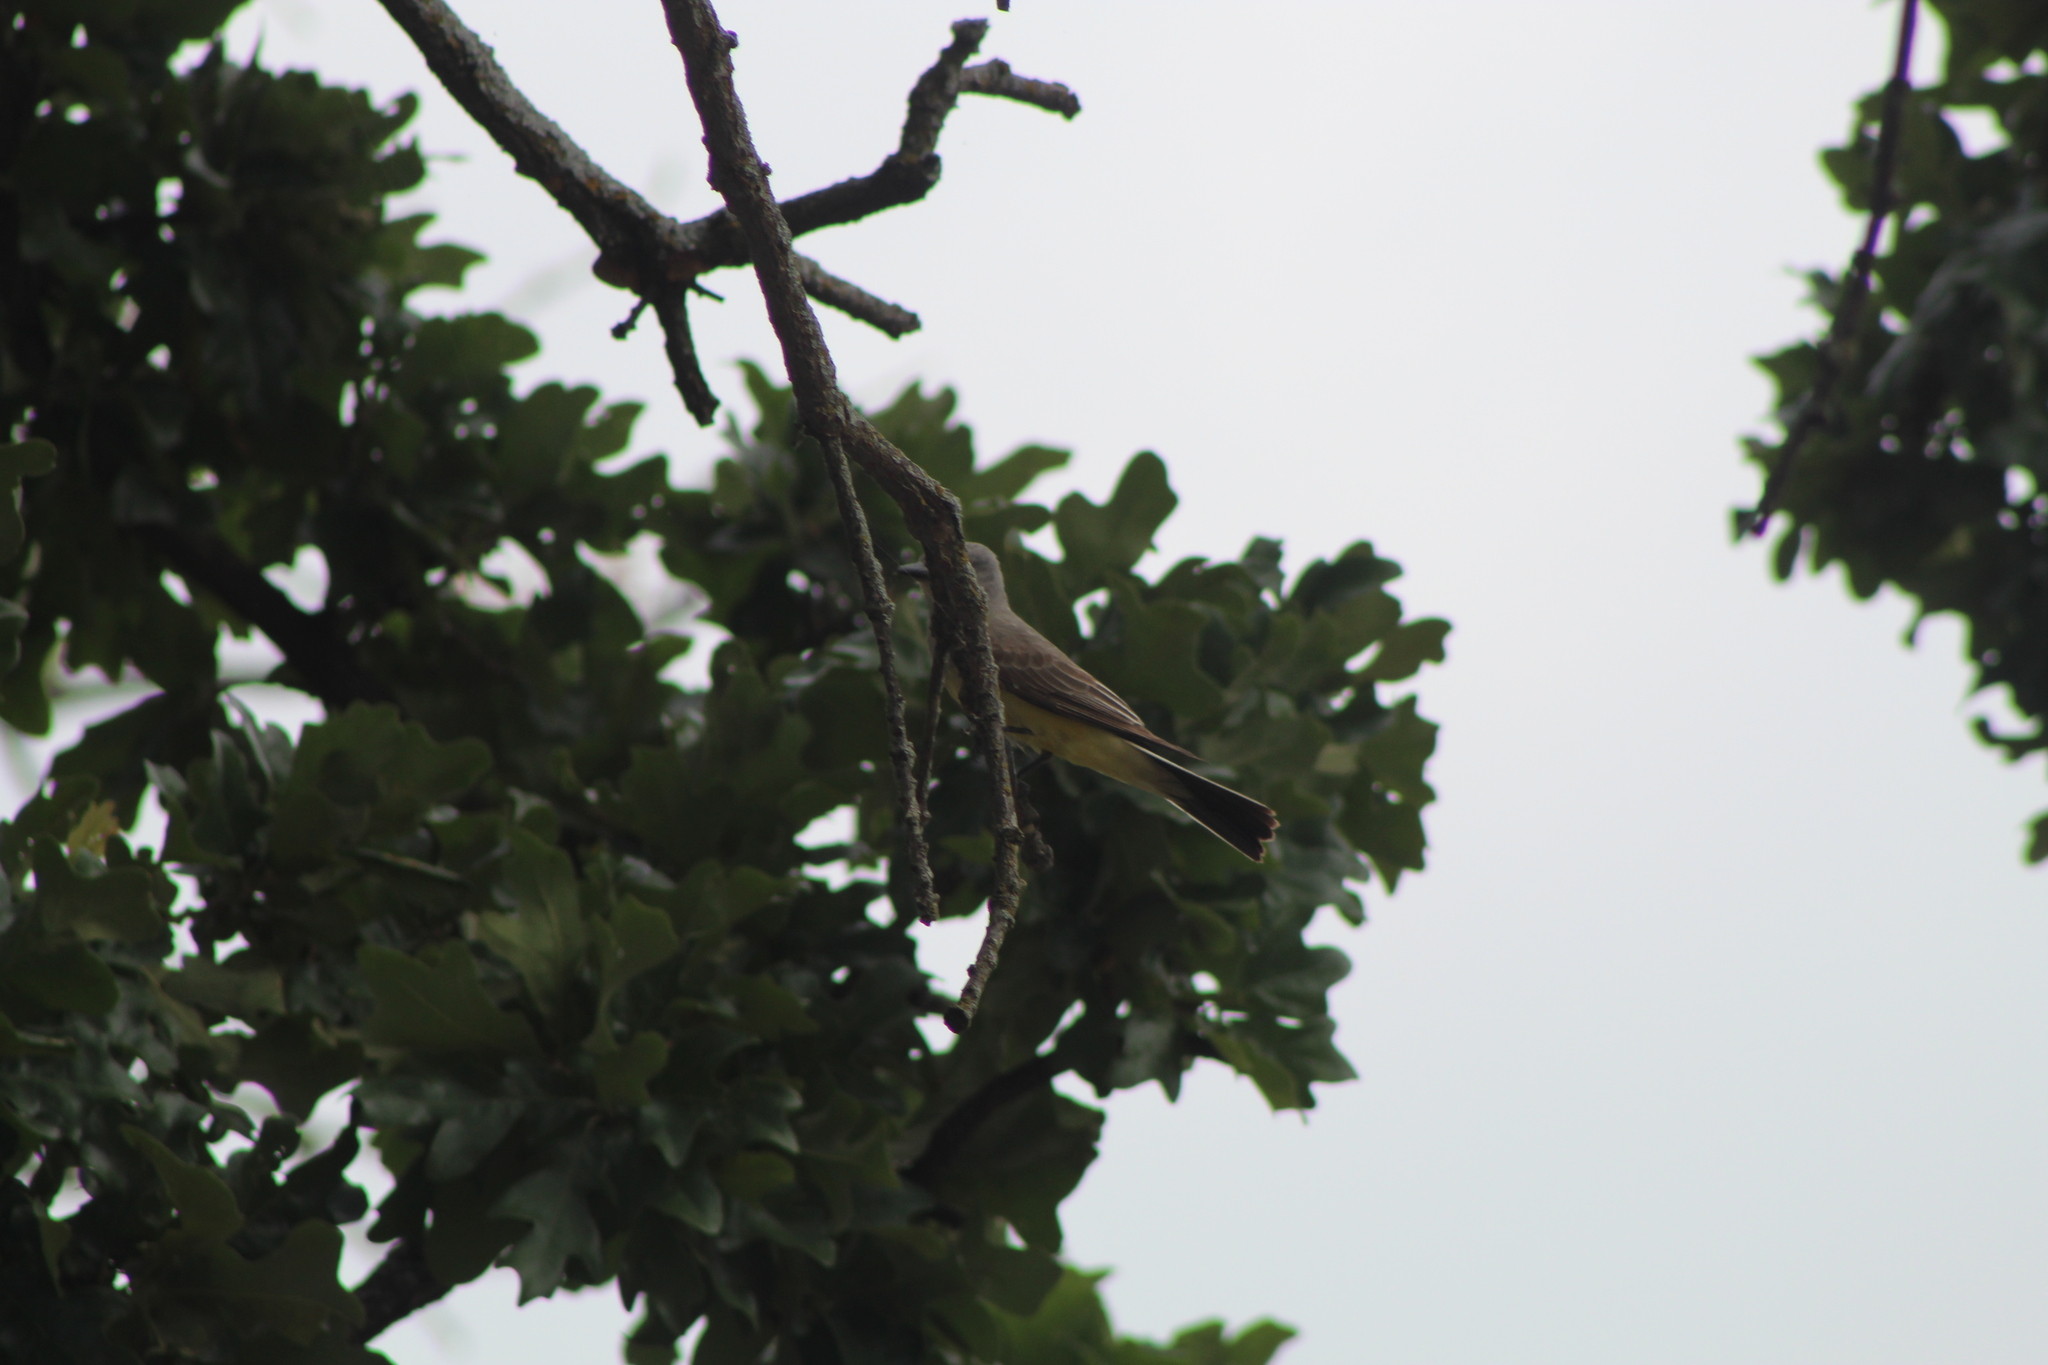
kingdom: Animalia
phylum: Chordata
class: Aves
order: Passeriformes
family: Tyrannidae
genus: Tyrannus
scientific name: Tyrannus verticalis
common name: Western kingbird
